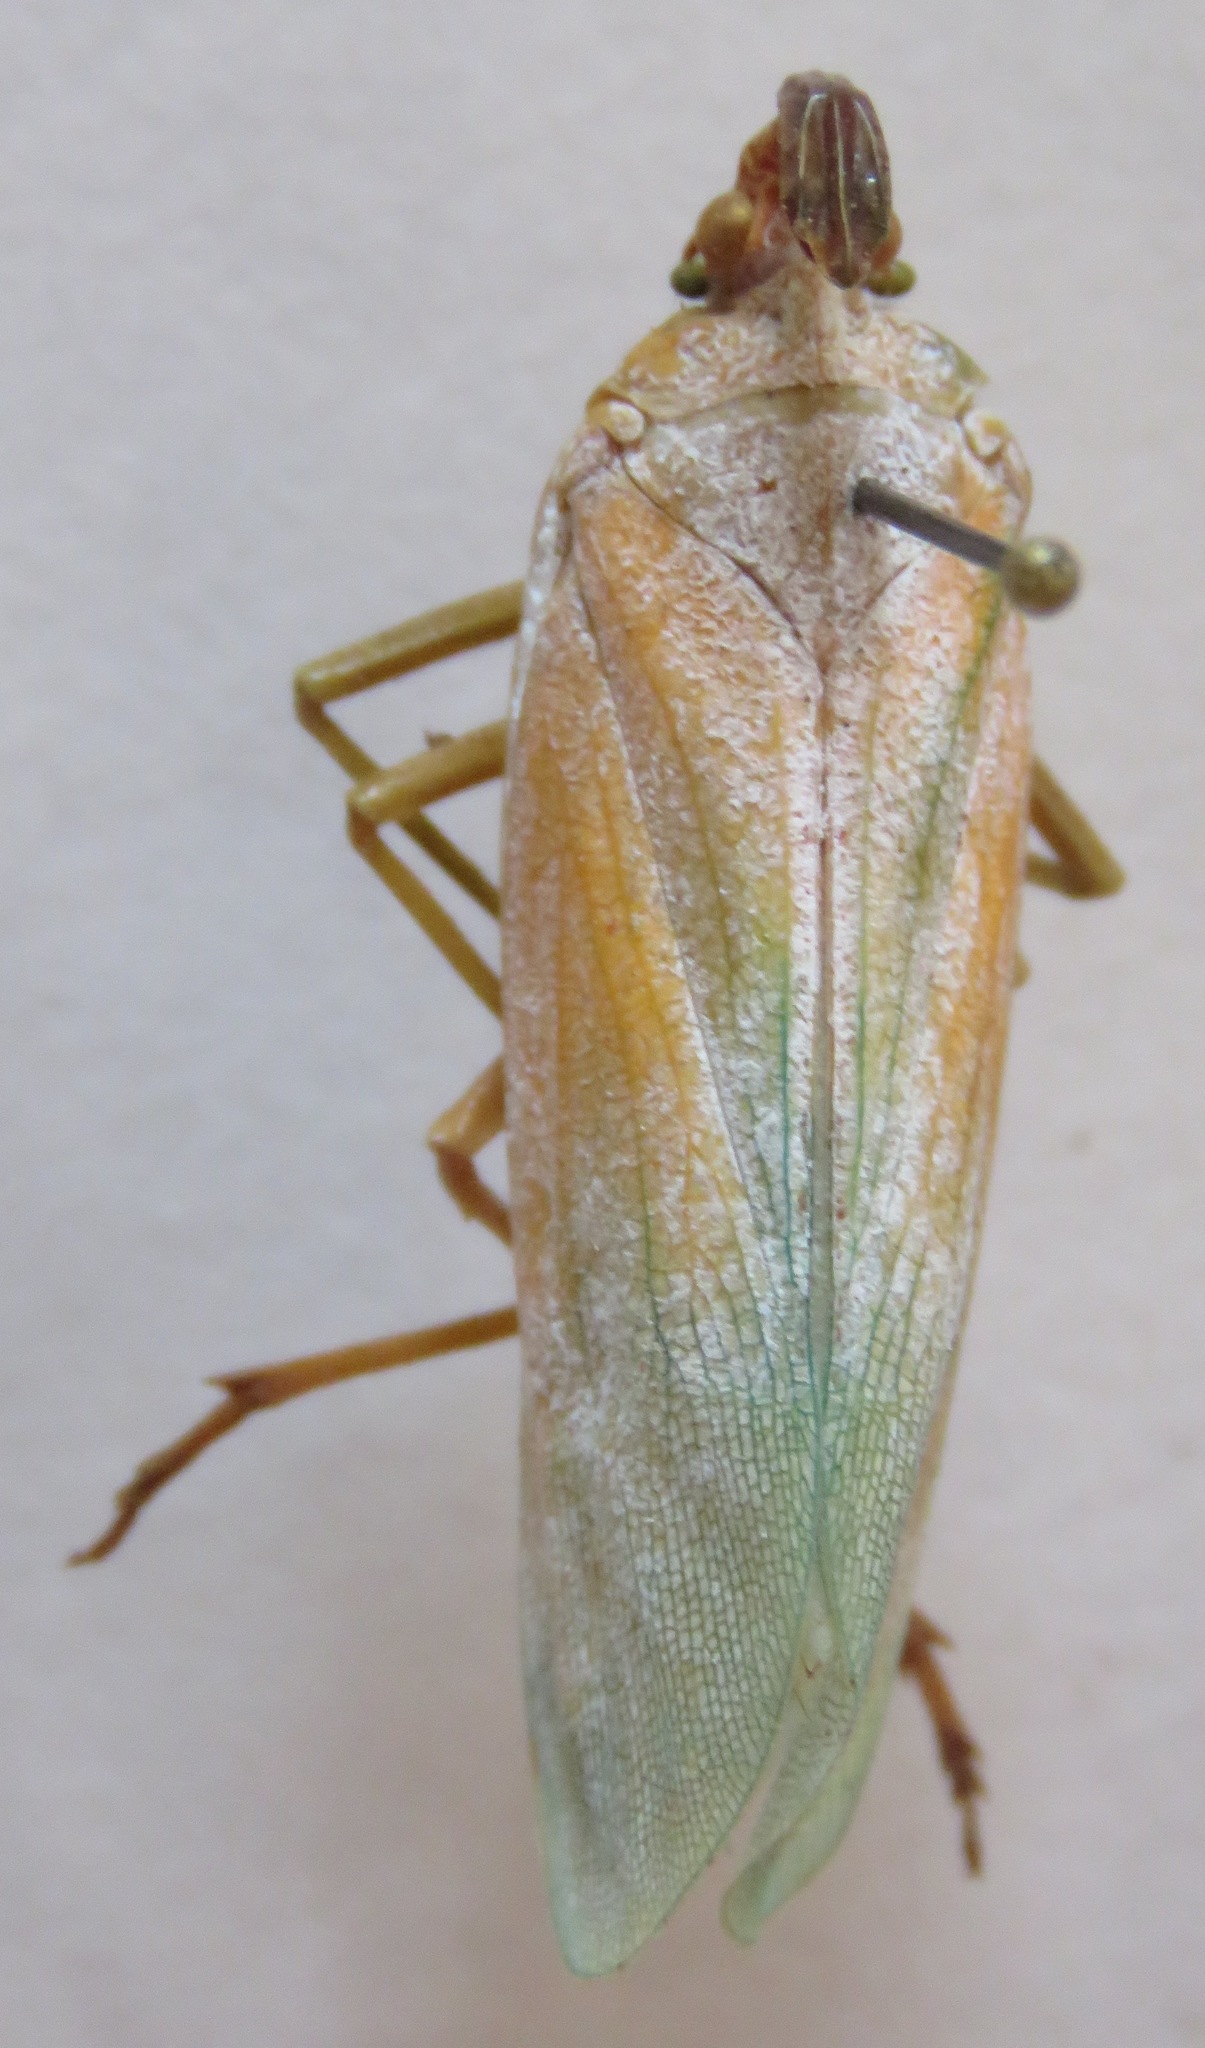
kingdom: Animalia
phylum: Arthropoda
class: Insecta
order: Hemiptera
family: Fulgoridae
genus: Enchophora
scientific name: Enchophora prasina
